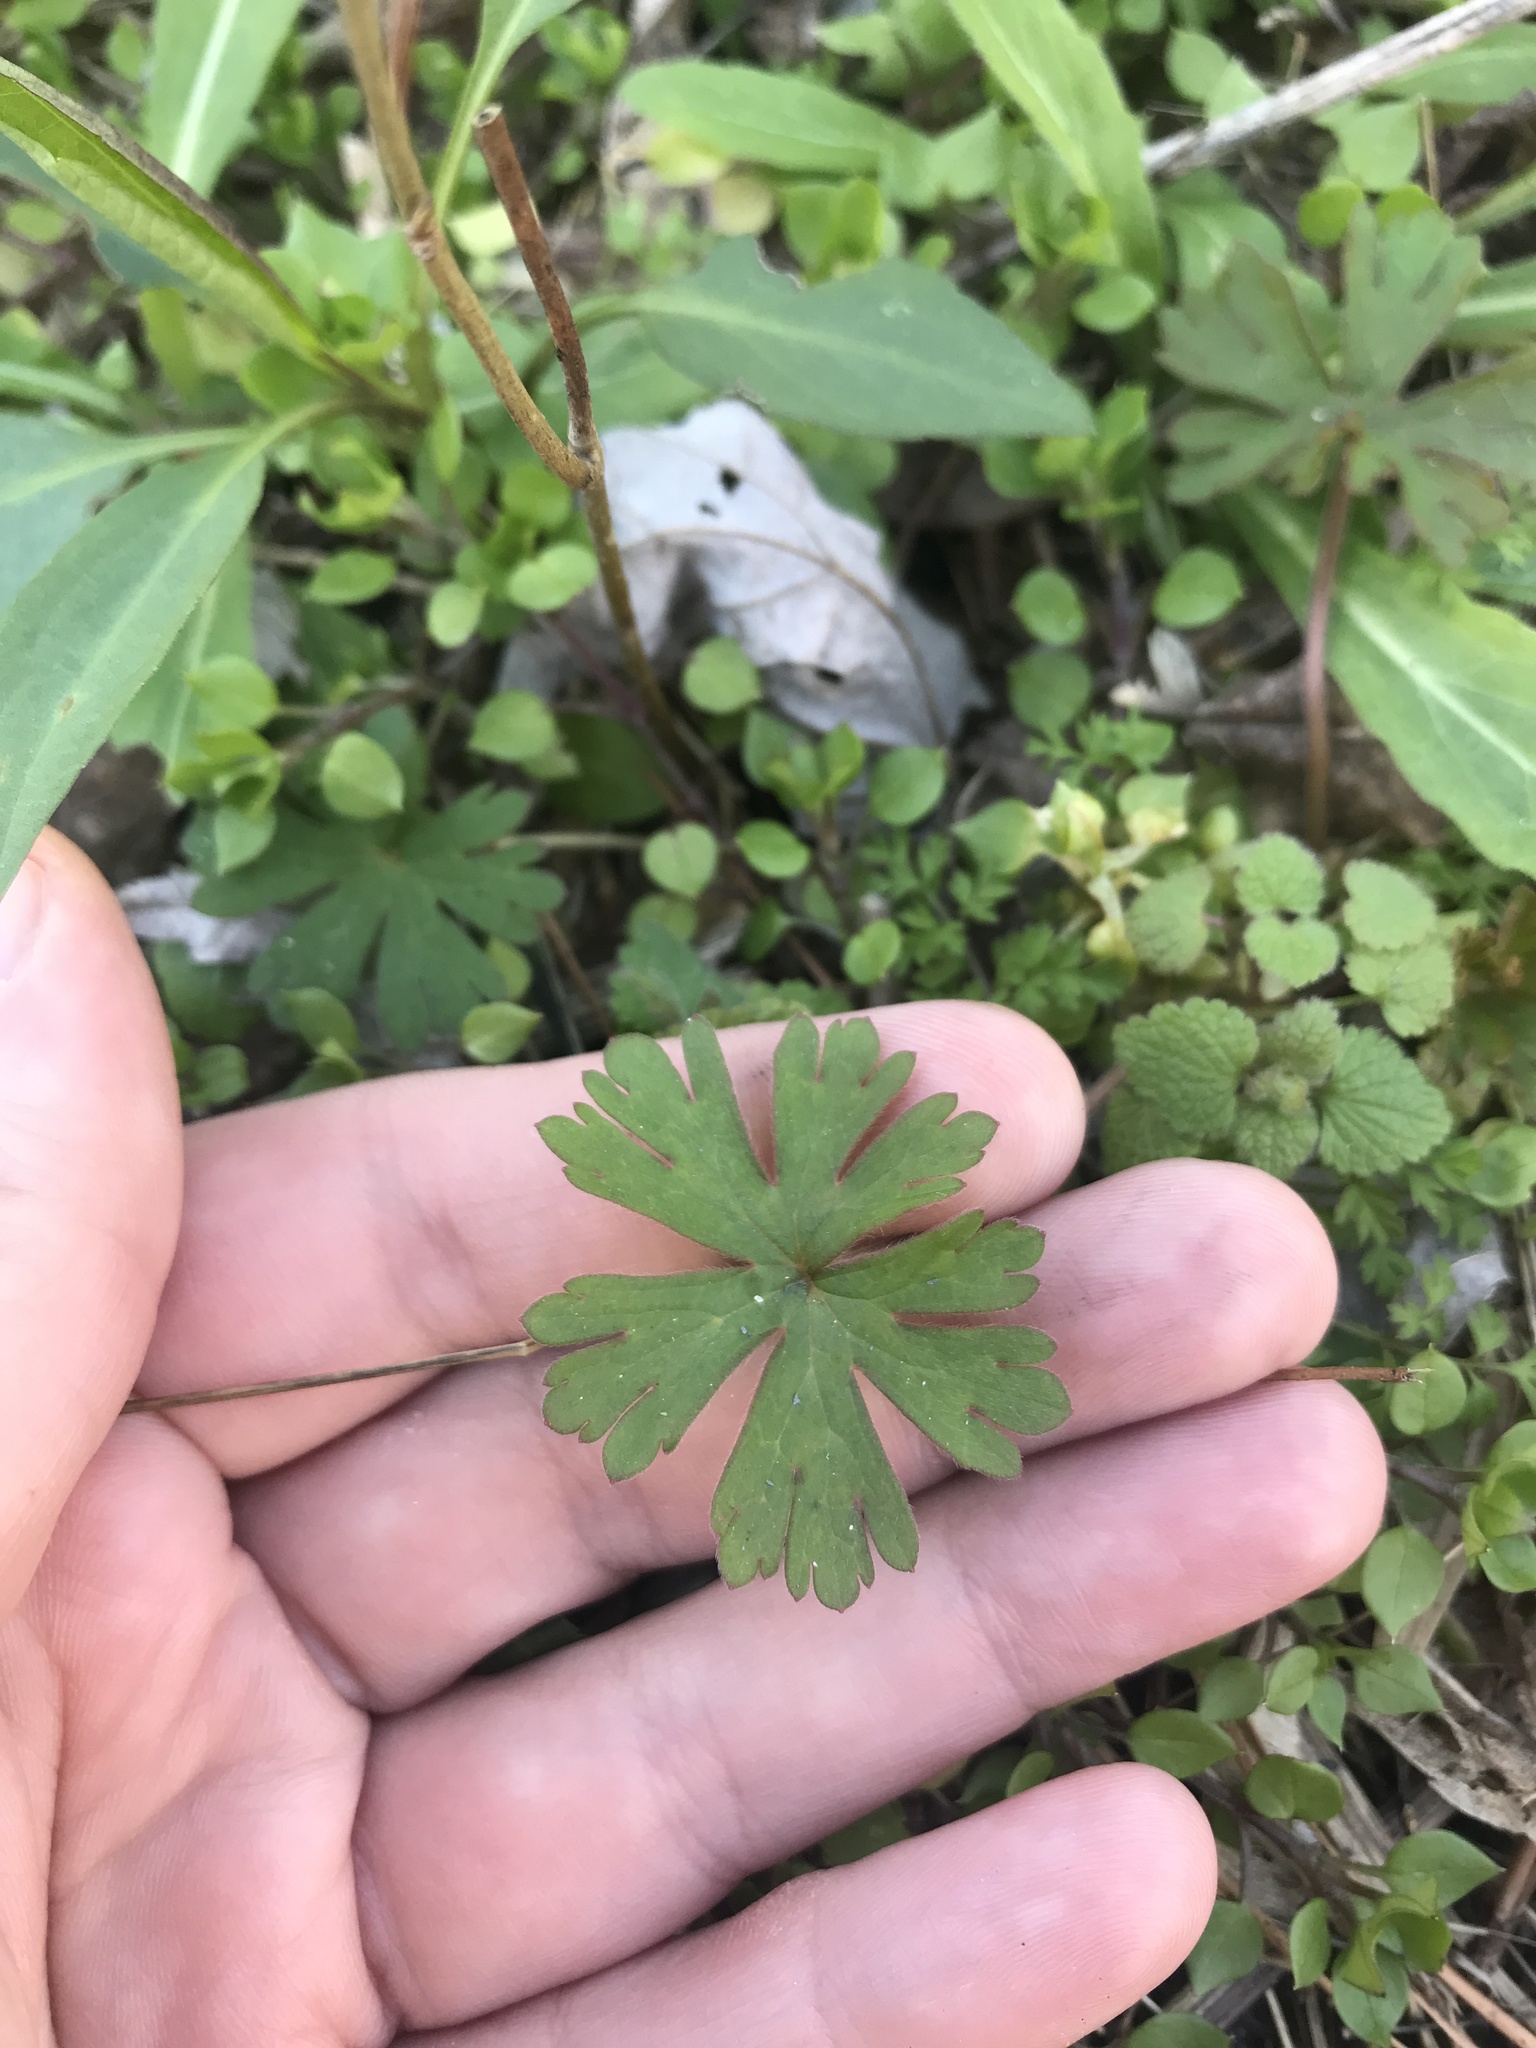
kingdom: Plantae
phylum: Tracheophyta
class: Magnoliopsida
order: Geraniales
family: Geraniaceae
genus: Geranium
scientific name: Geranium carolinianum
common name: Carolina crane's-bill
